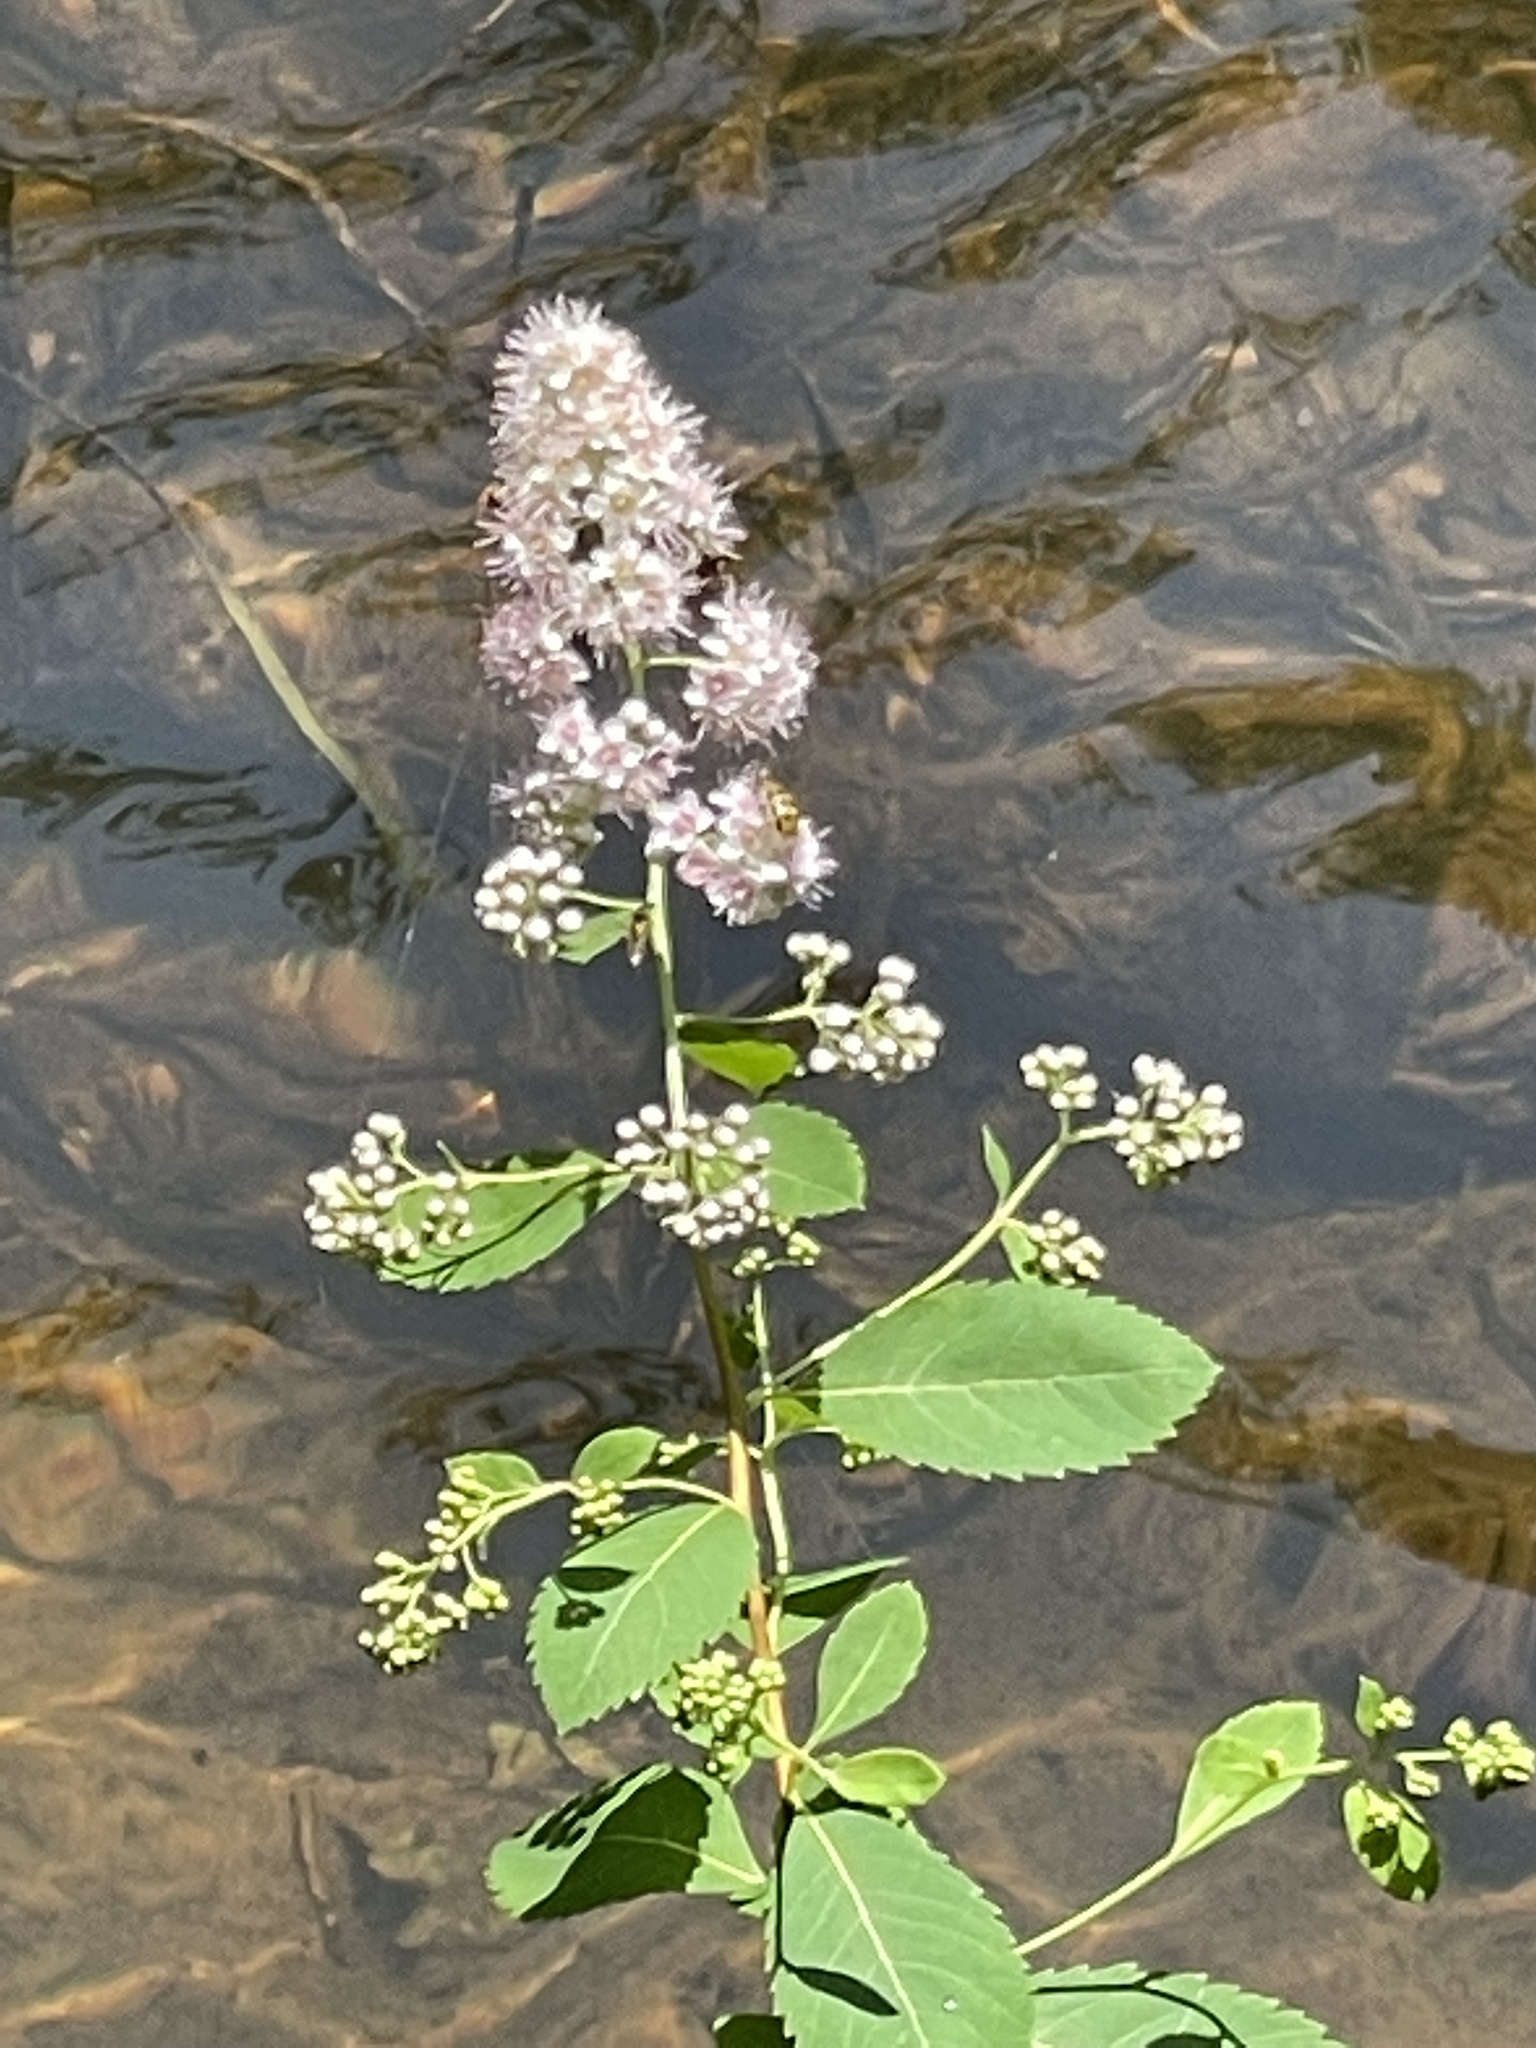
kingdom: Plantae
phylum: Tracheophyta
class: Magnoliopsida
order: Rosales
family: Rosaceae
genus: Spiraea
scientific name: Spiraea alba
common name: Pale bridewort
